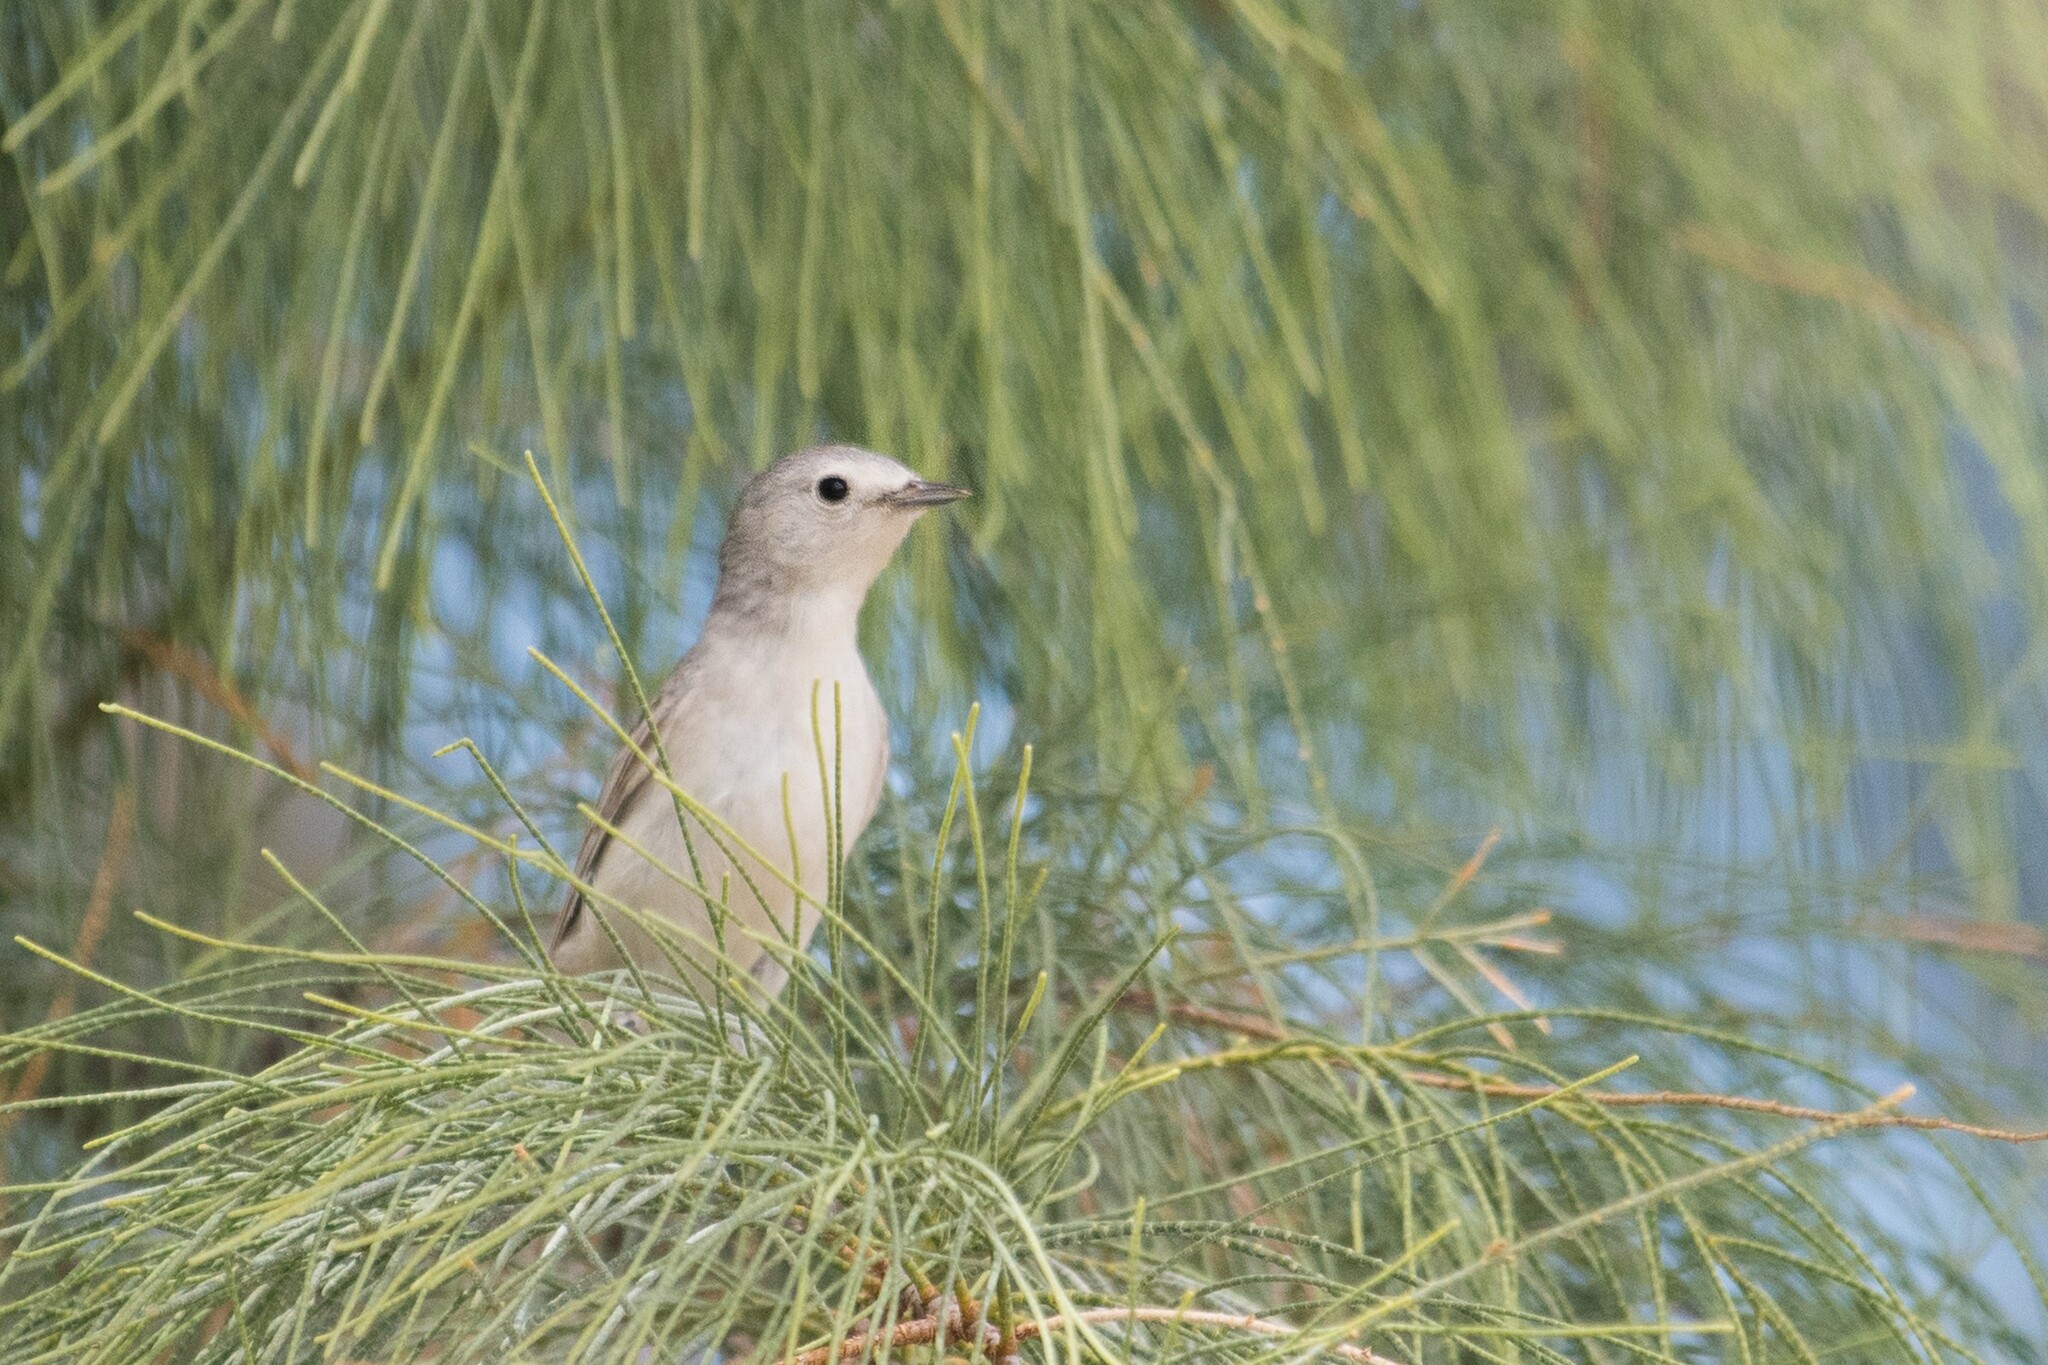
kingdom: Animalia
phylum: Chordata
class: Aves
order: Passeriformes
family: Parulidae
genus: Leiothlypis
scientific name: Leiothlypis luciae
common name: Lucy's warbler
